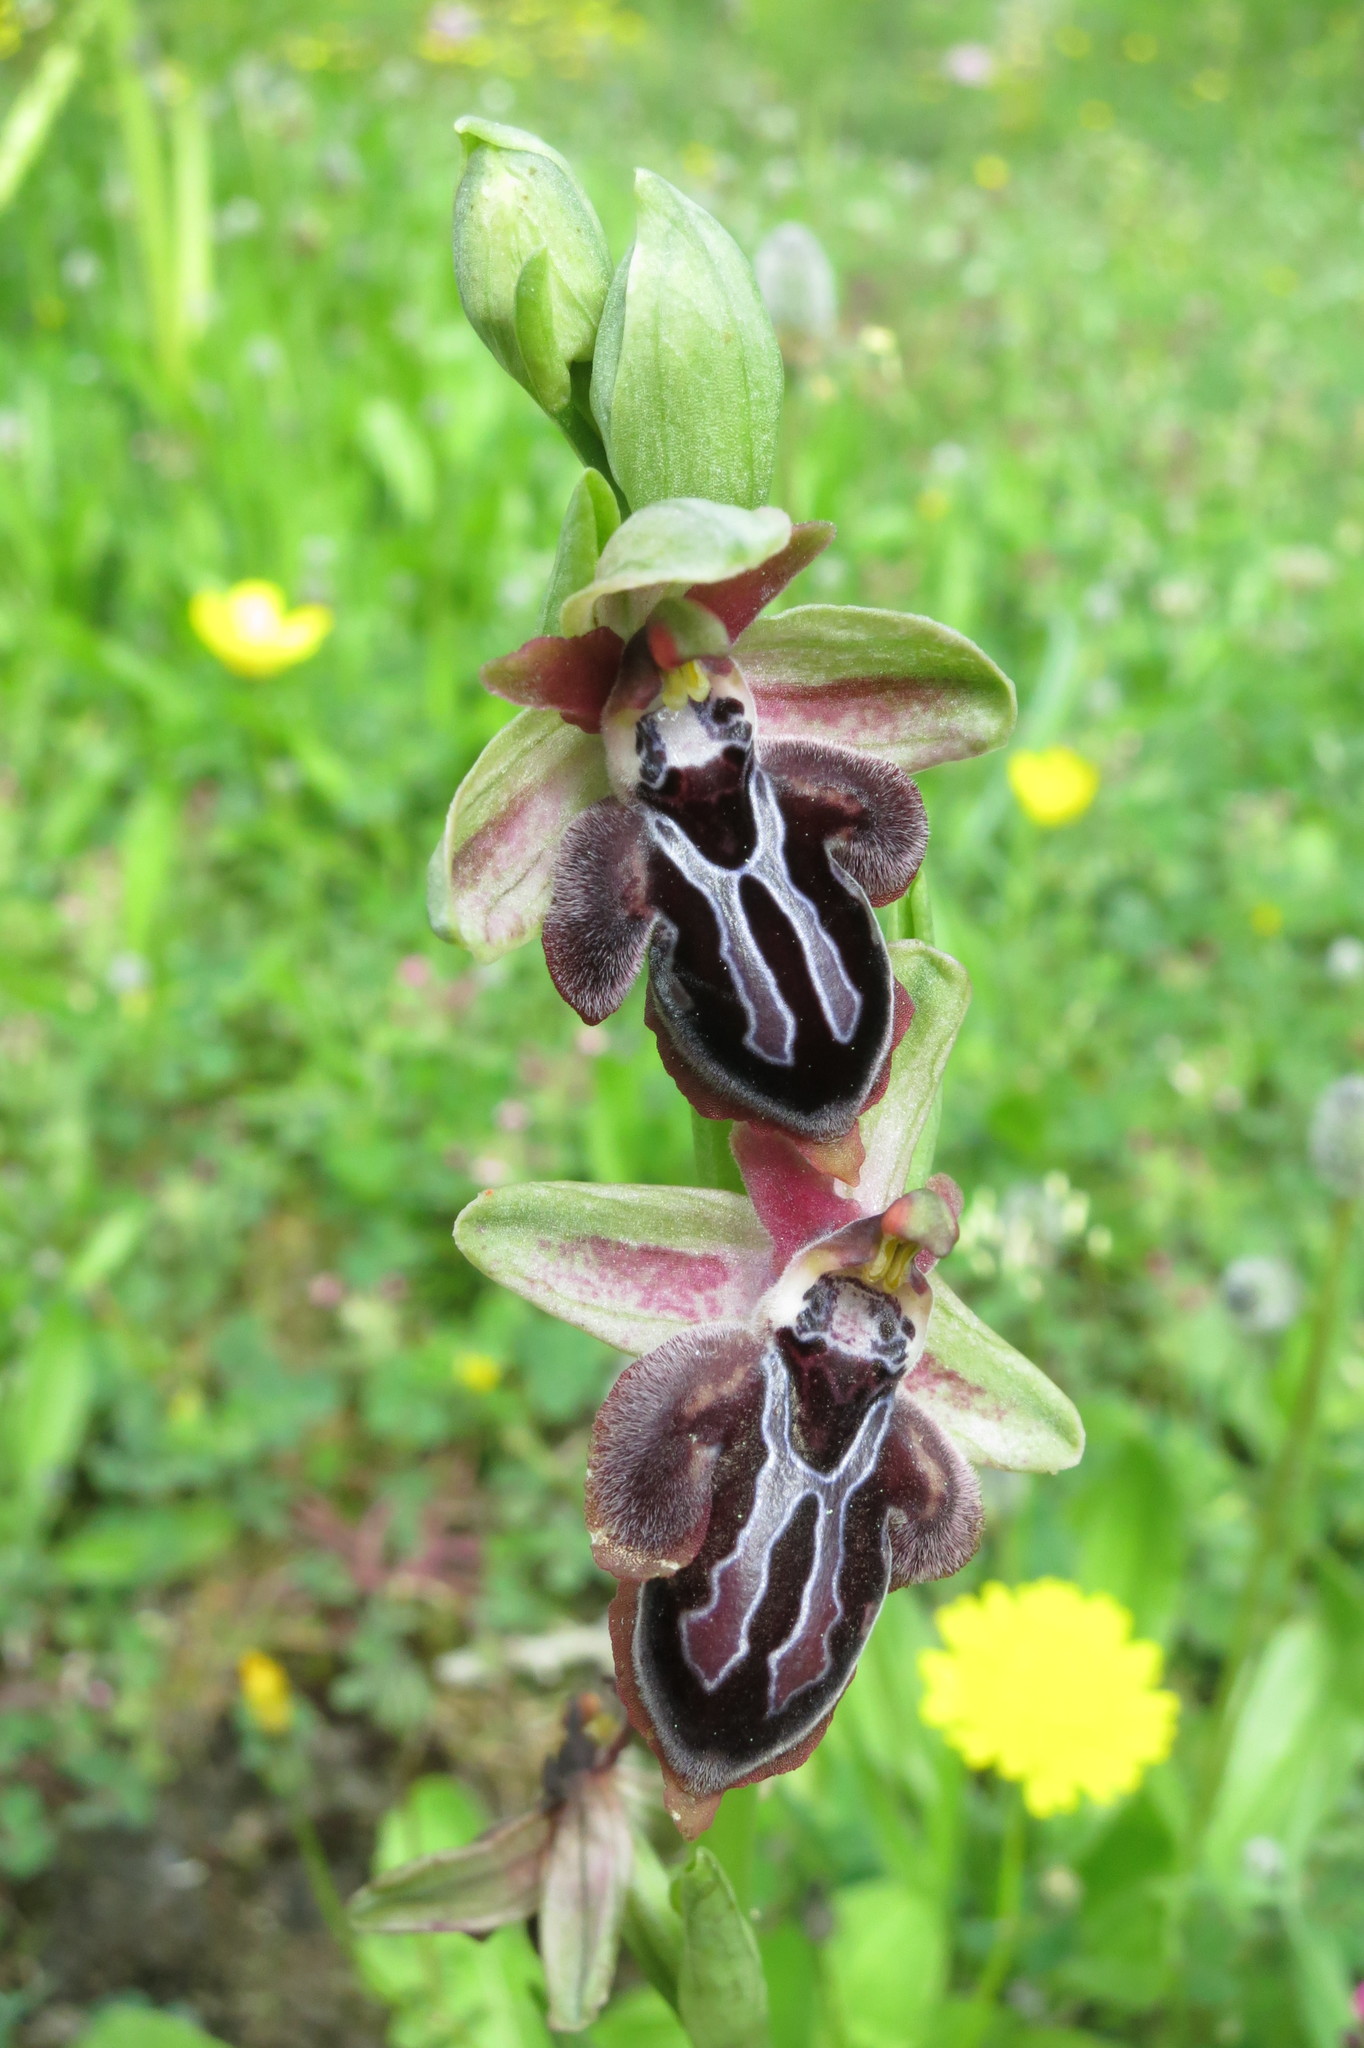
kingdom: Plantae
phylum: Tracheophyta
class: Liliopsida
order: Asparagales
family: Orchidaceae
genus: Ophrys
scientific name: Ophrys cretica
